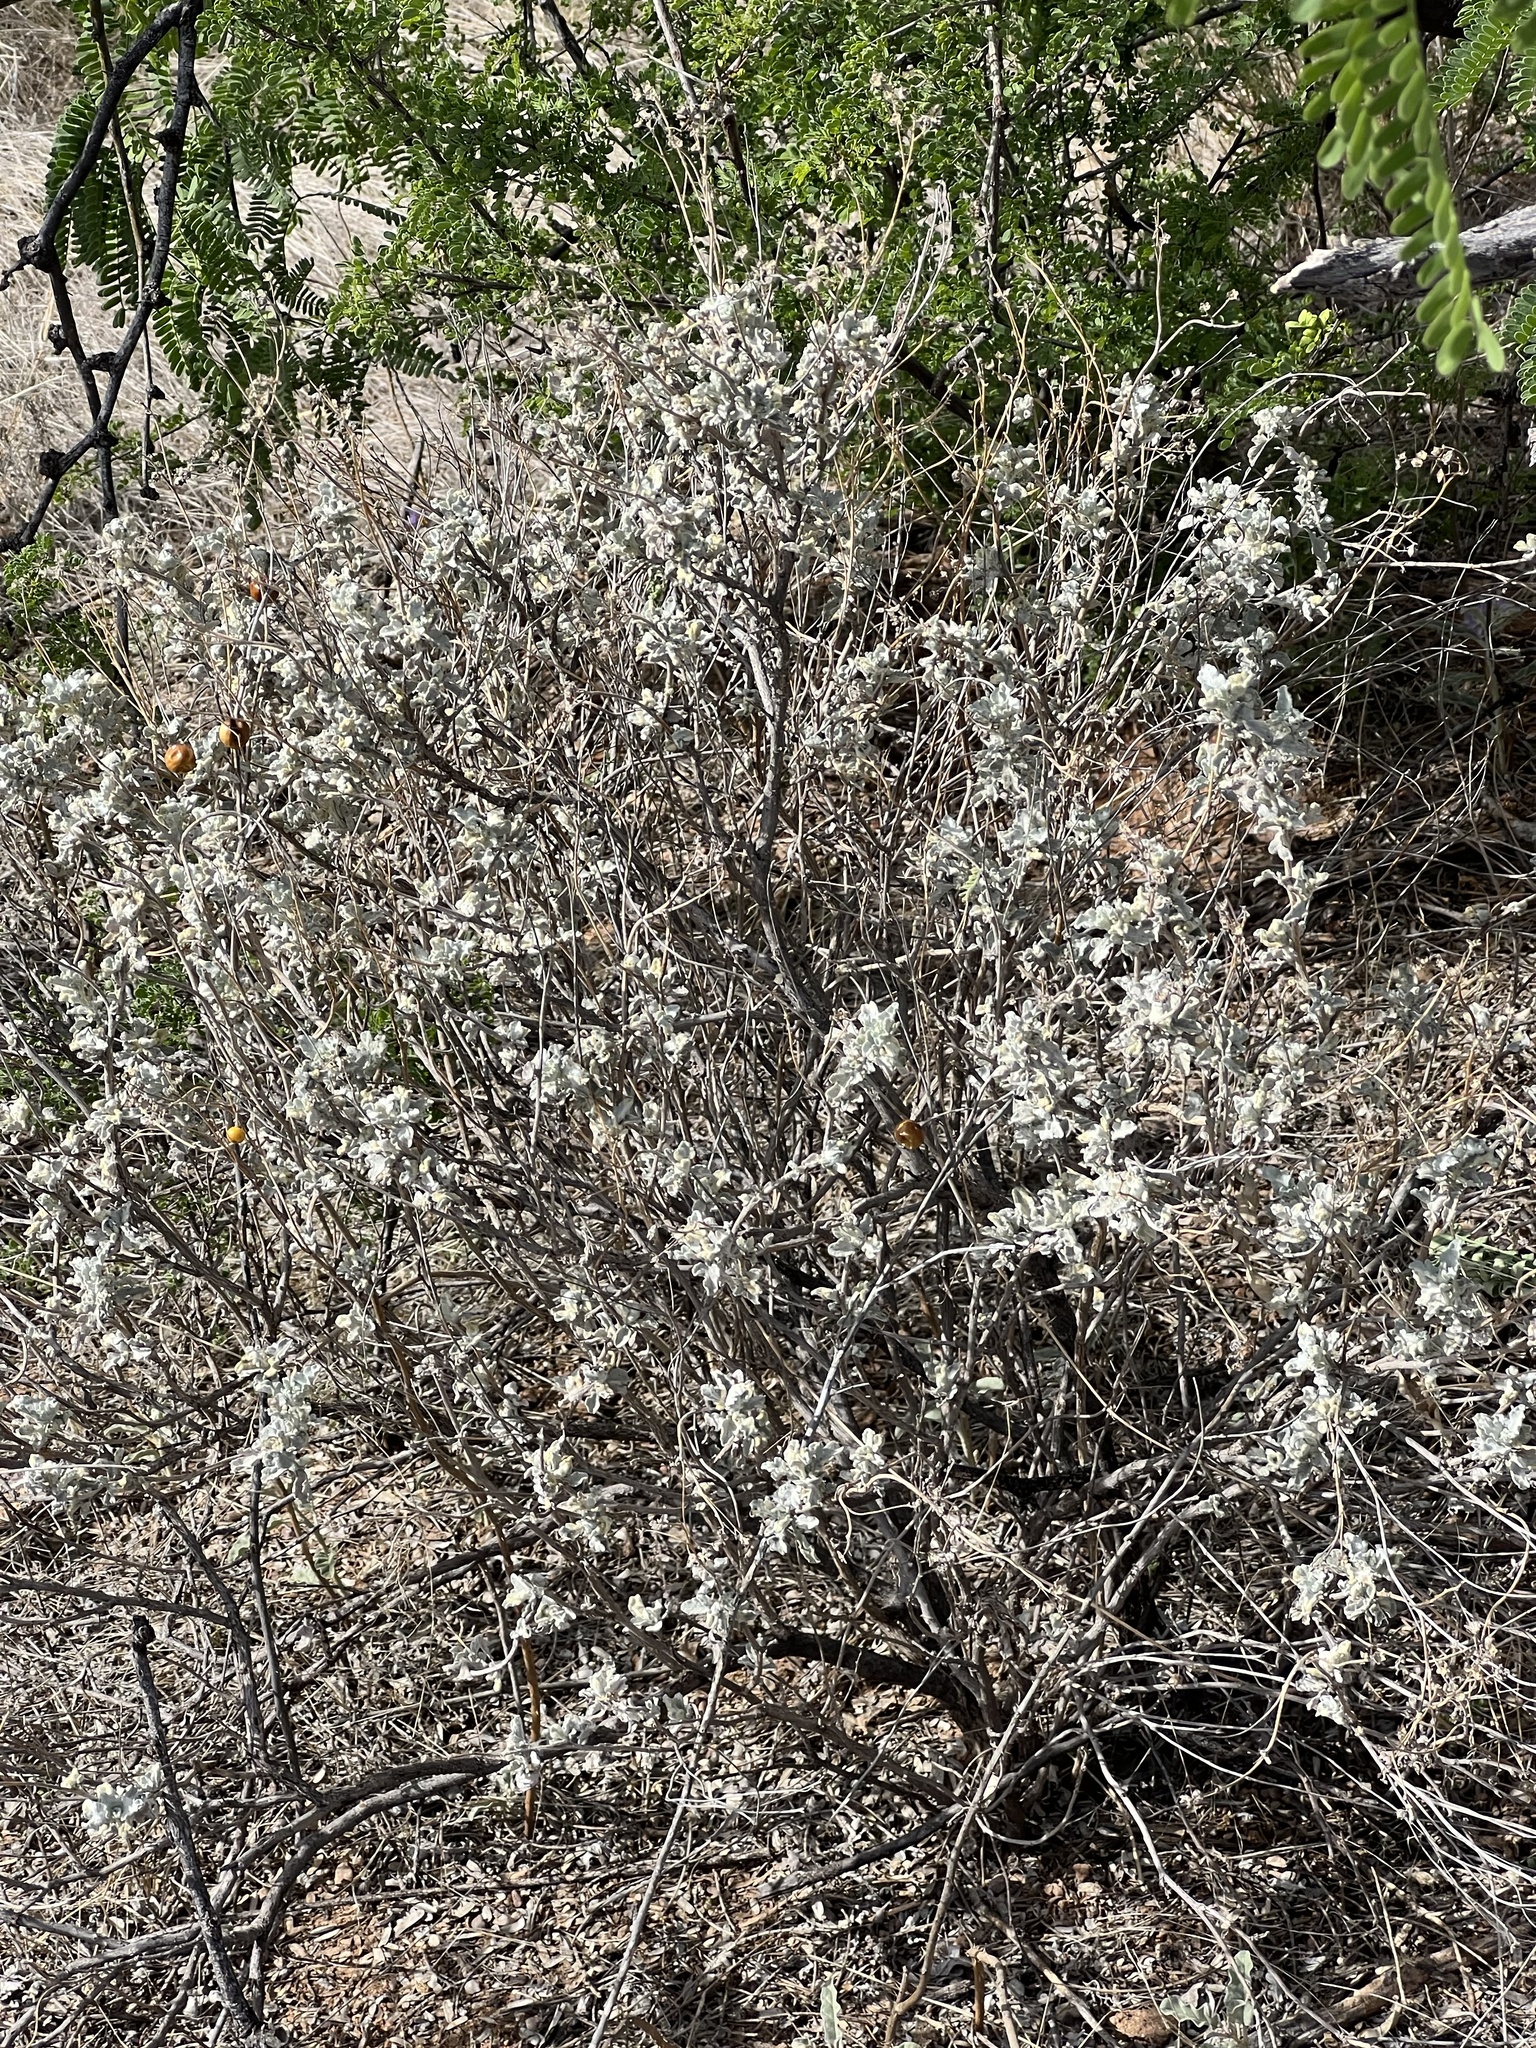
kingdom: Plantae
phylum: Tracheophyta
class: Magnoliopsida
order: Asterales
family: Asteraceae
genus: Parthenium
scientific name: Parthenium incanum
